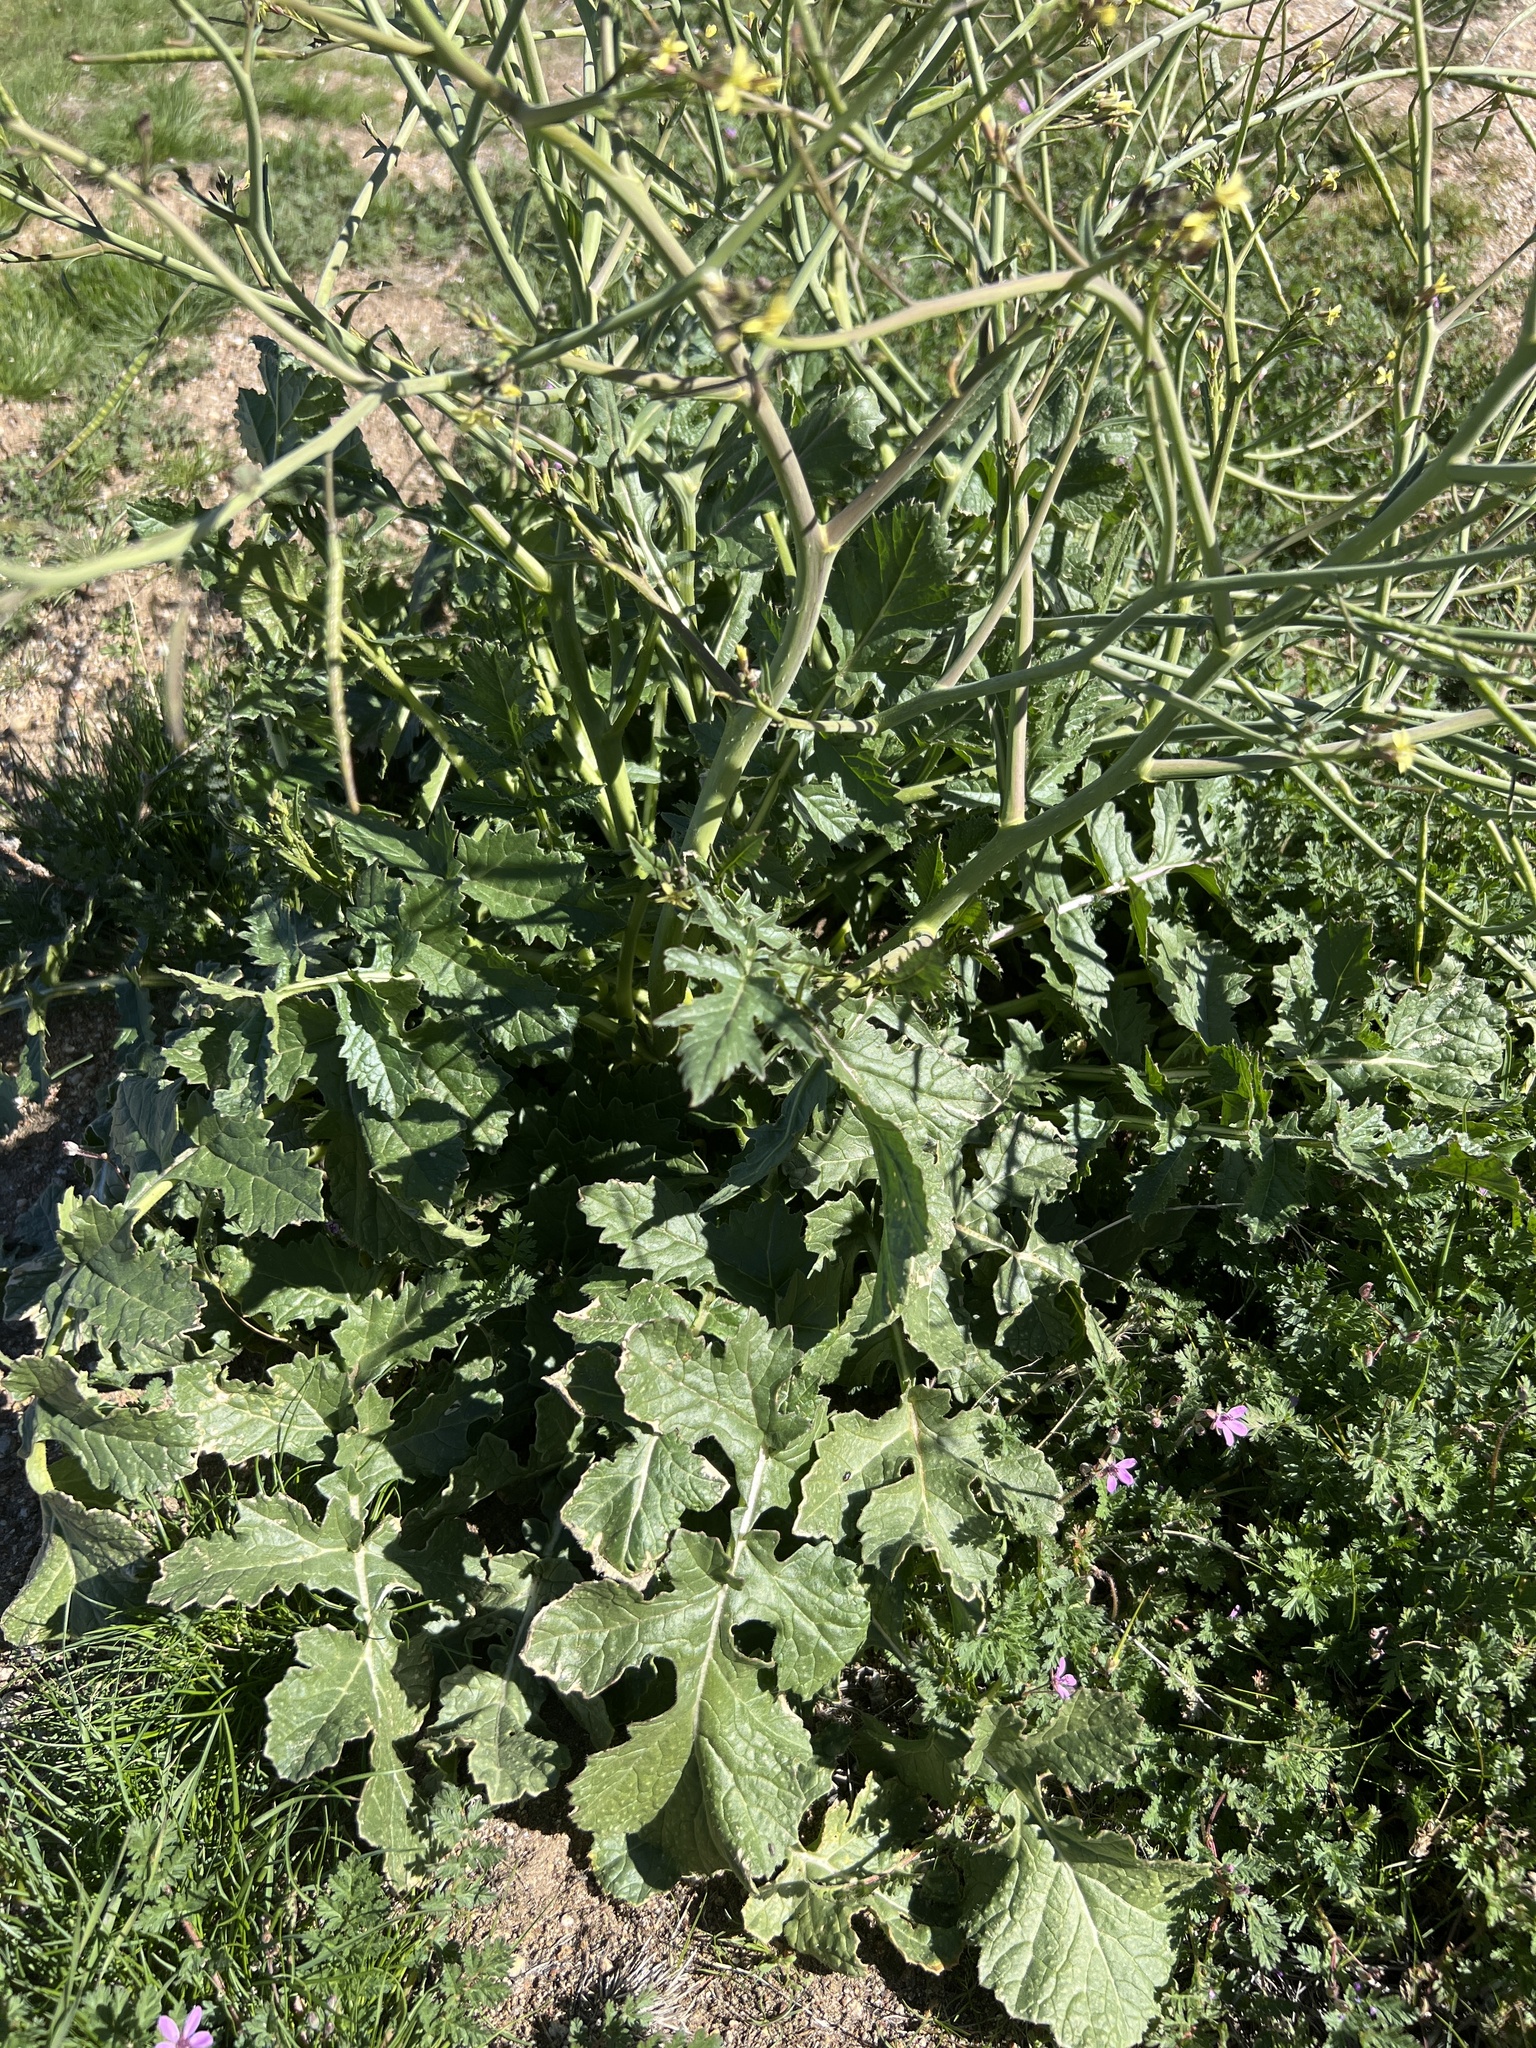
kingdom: Plantae
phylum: Tracheophyta
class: Magnoliopsida
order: Brassicales
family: Brassicaceae
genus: Brassica
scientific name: Brassica tournefortii
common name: Pale cabbage
